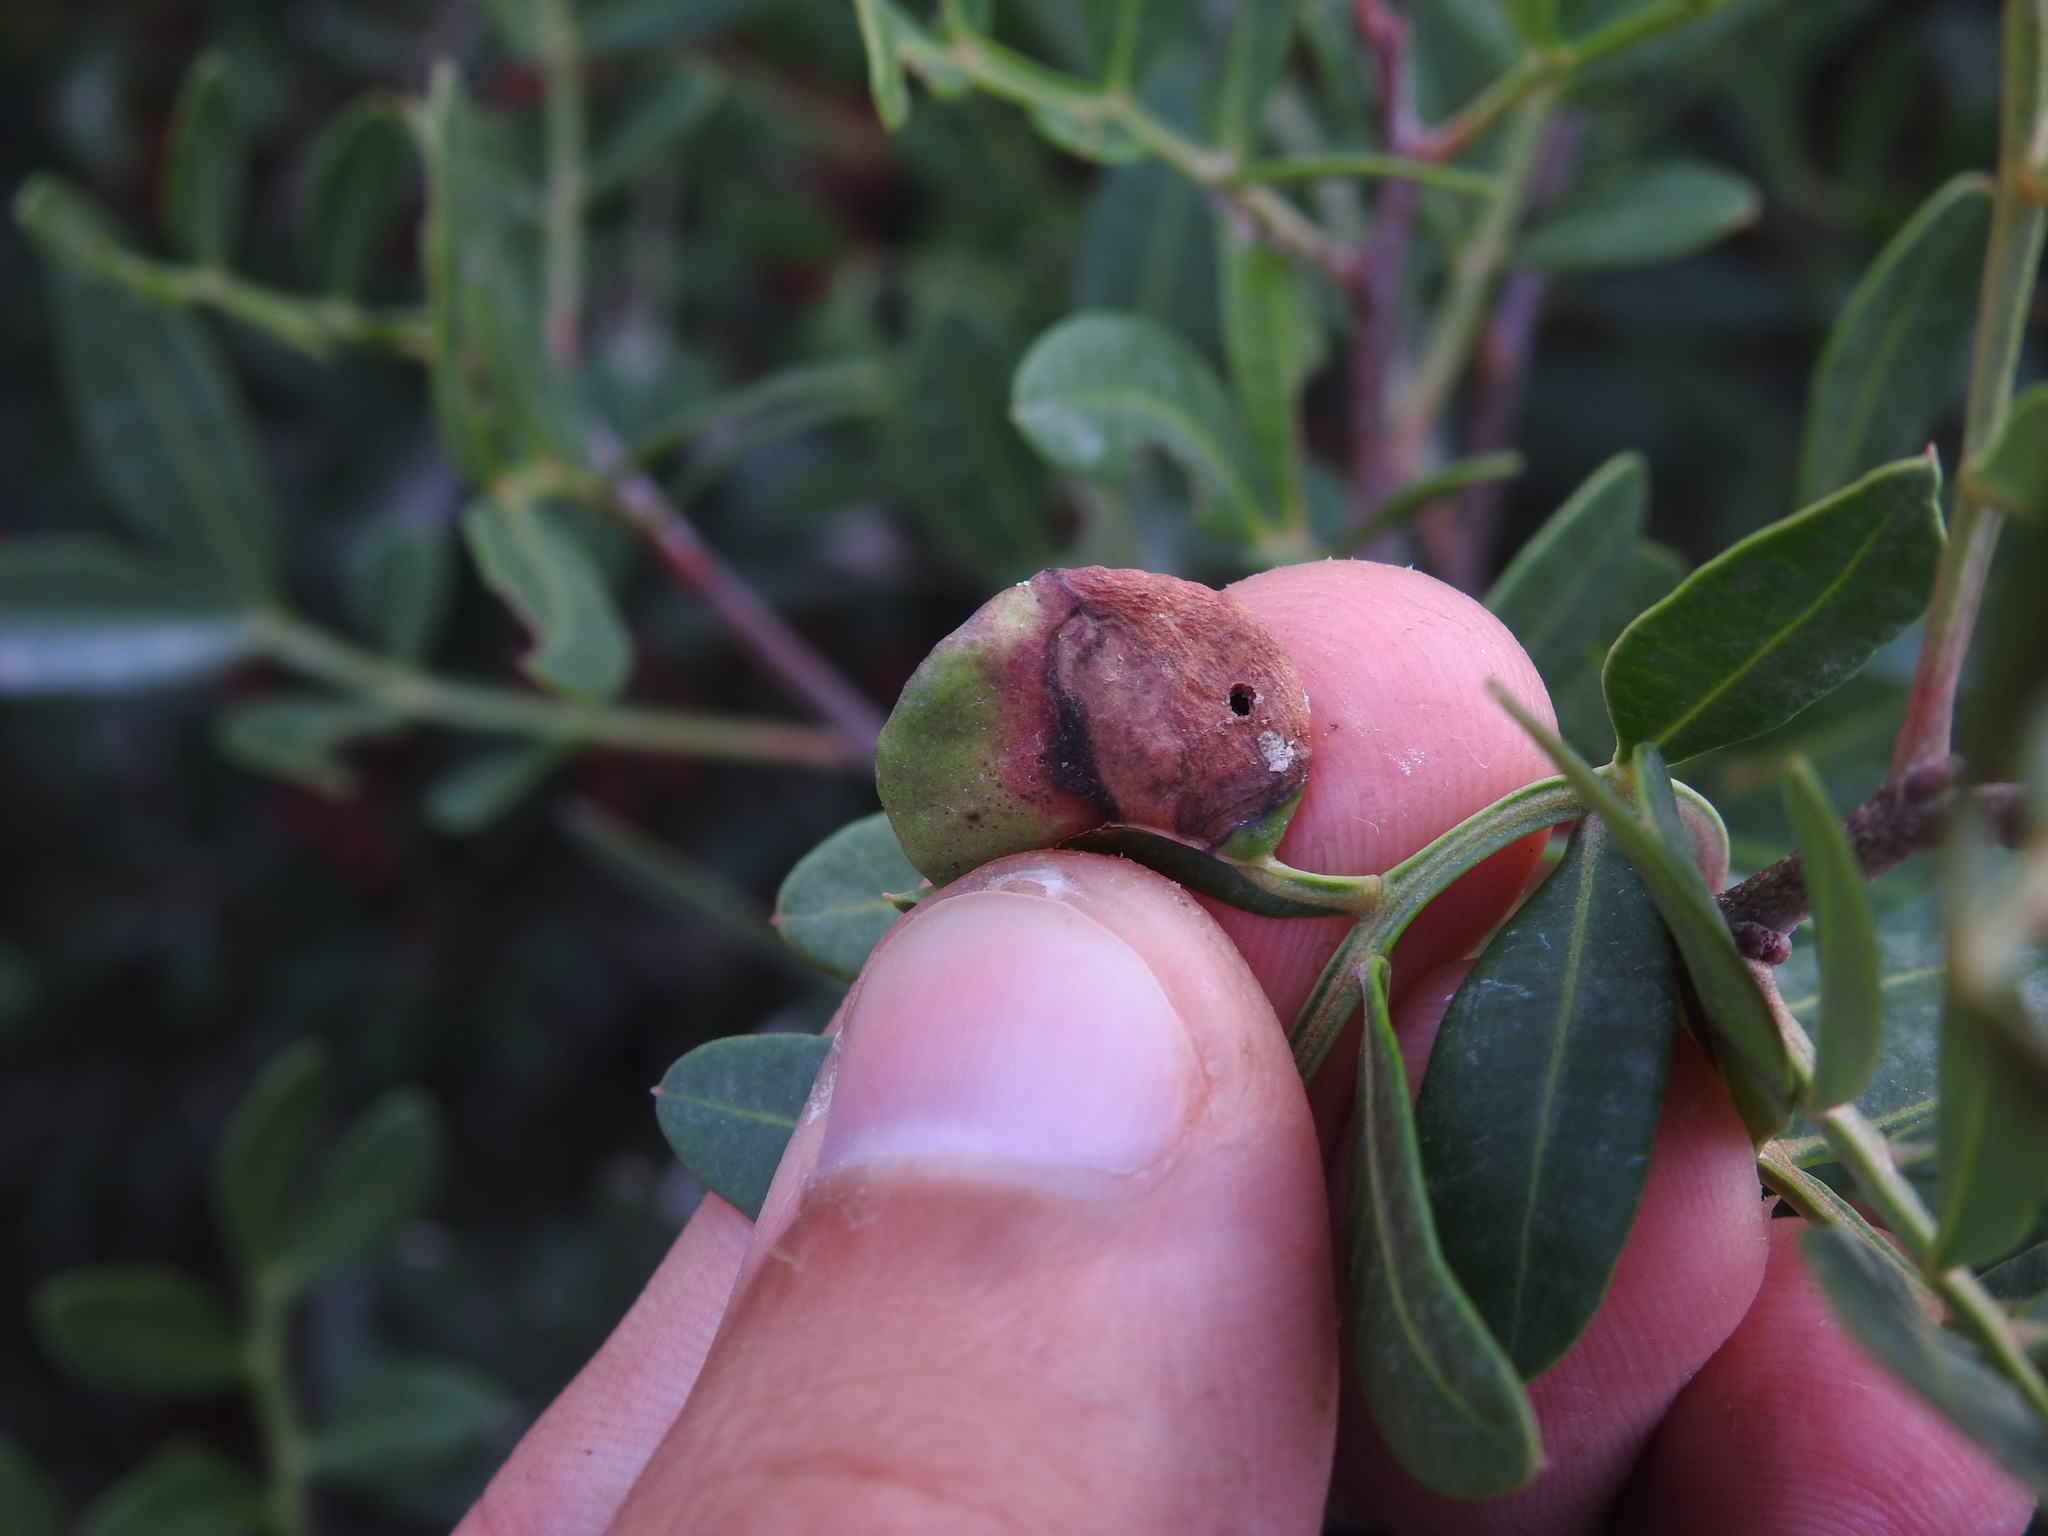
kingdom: Animalia
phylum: Arthropoda
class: Insecta
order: Hemiptera
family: Aphididae
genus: Aploneura
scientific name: Aploneura lentisci
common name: Mealy grass root aphid
